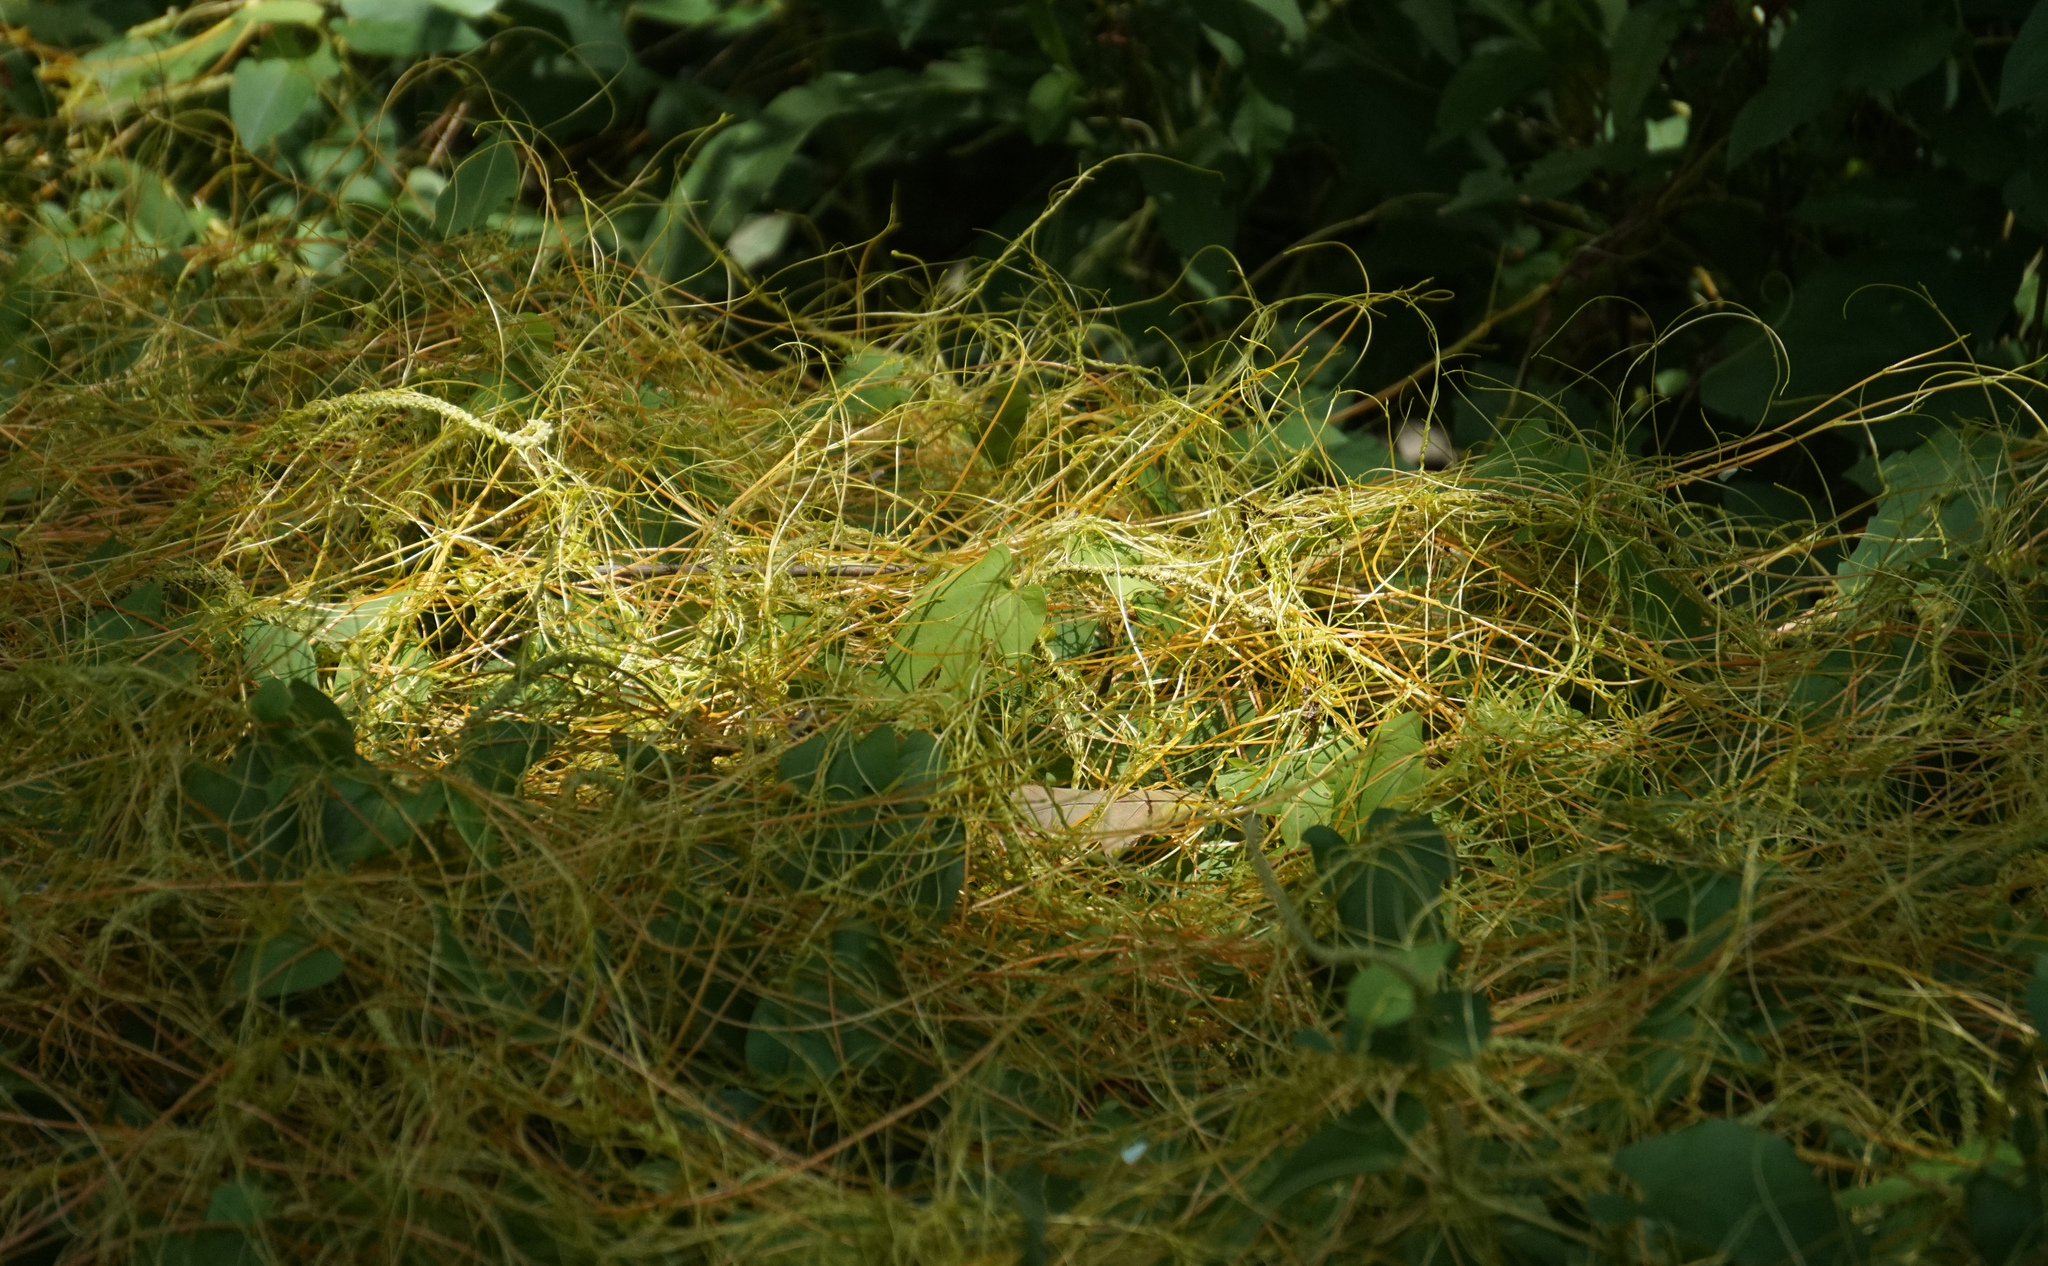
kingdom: Plantae
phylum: Tracheophyta
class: Magnoliopsida
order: Solanales
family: Convolvulaceae
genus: Cuscuta
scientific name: Cuscuta gronovii
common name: Common dodder
